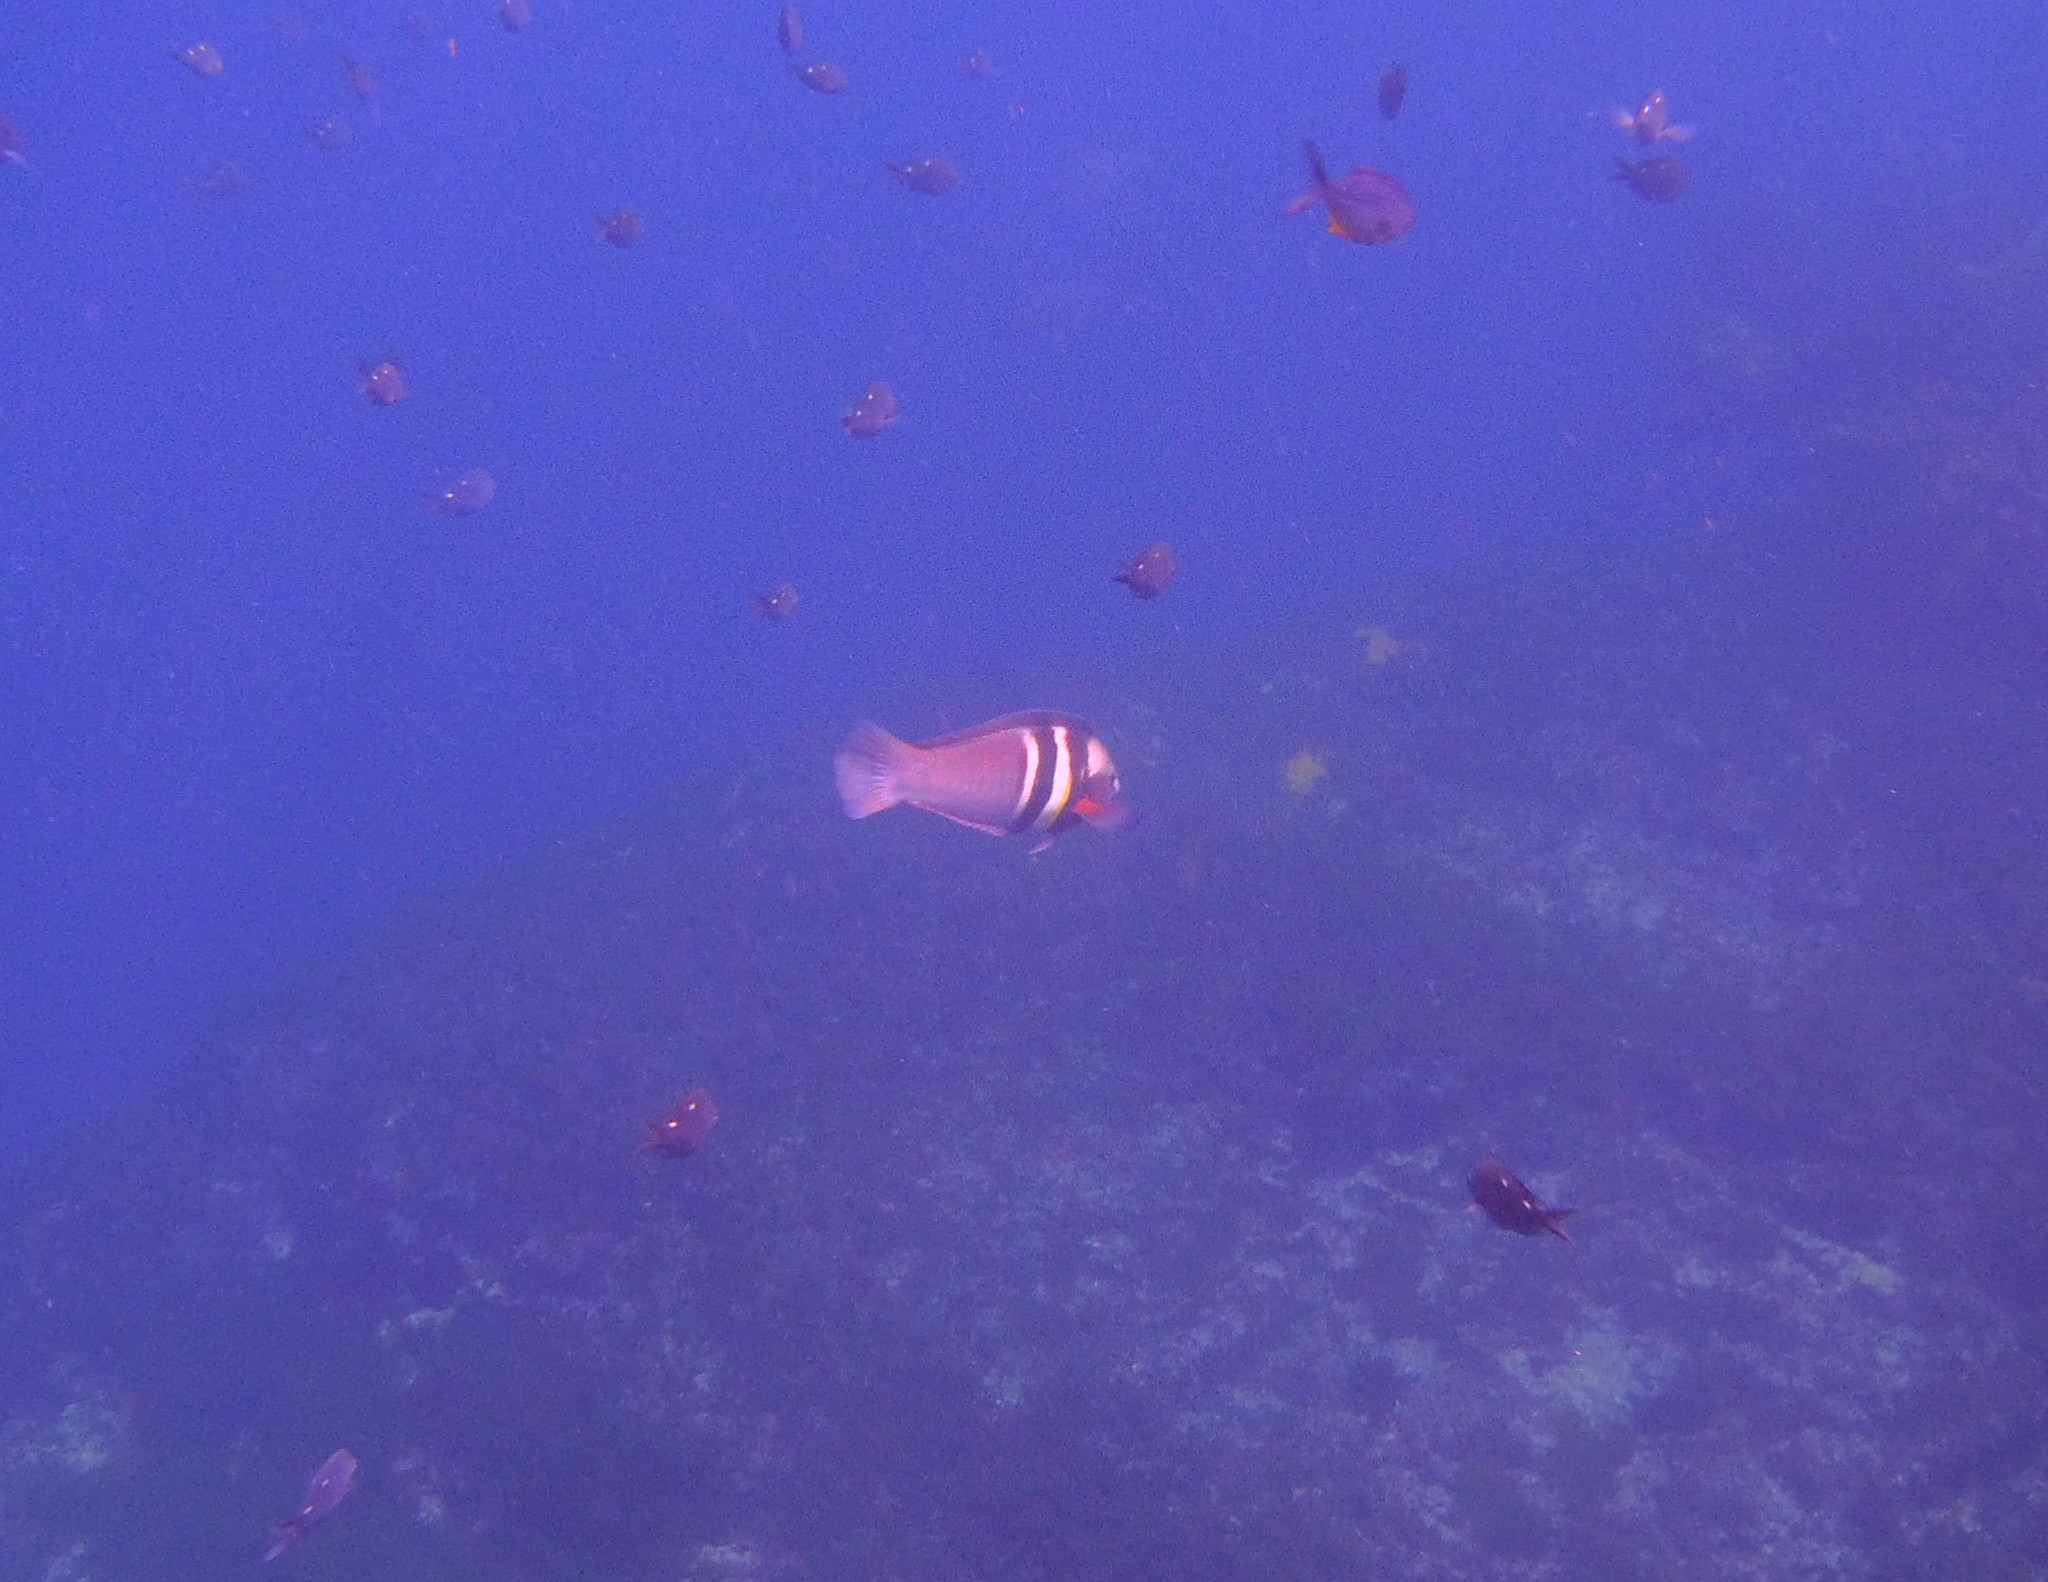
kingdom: Animalia
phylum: Chordata
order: Perciformes
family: Labridae
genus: Coris
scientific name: Coris sandeyeri
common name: Sandager's wrasse
